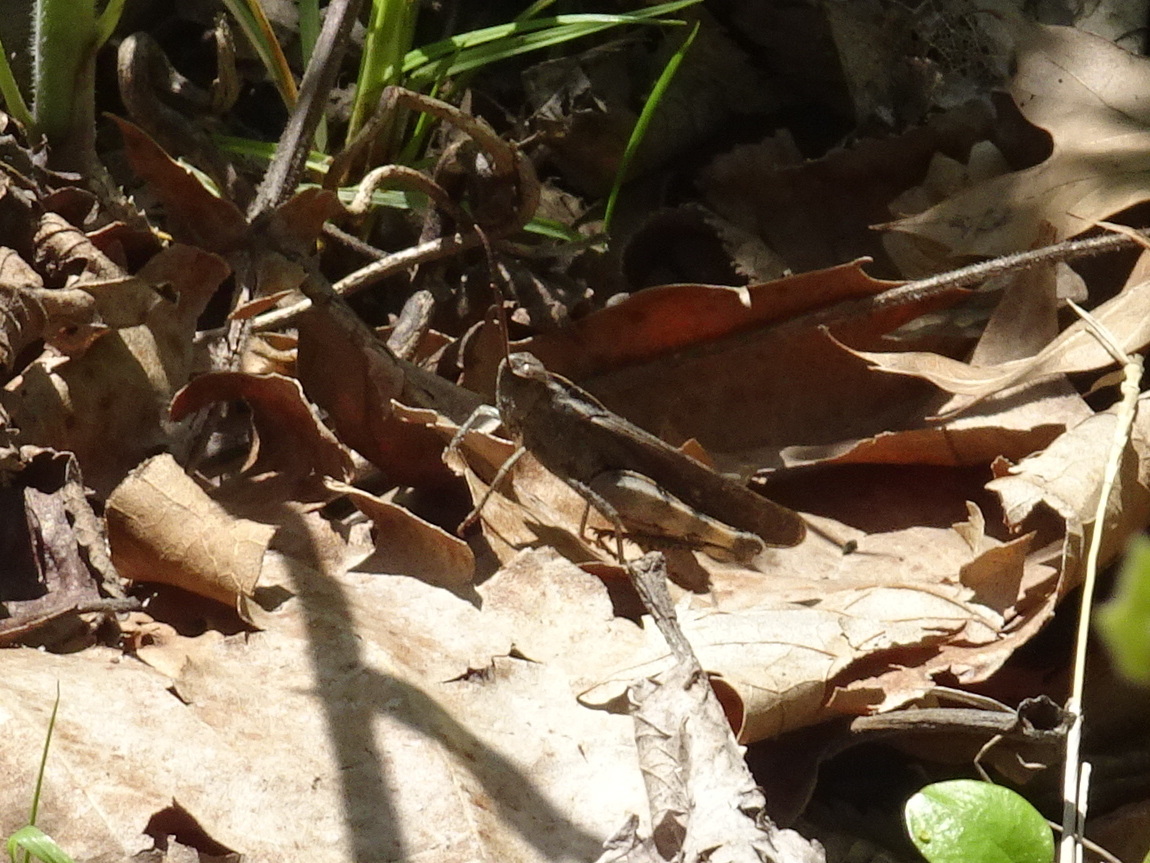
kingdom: Animalia
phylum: Arthropoda
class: Insecta
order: Orthoptera
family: Acrididae
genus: Chortophaga
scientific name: Chortophaga viridifasciata
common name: Green-striped grasshopper
